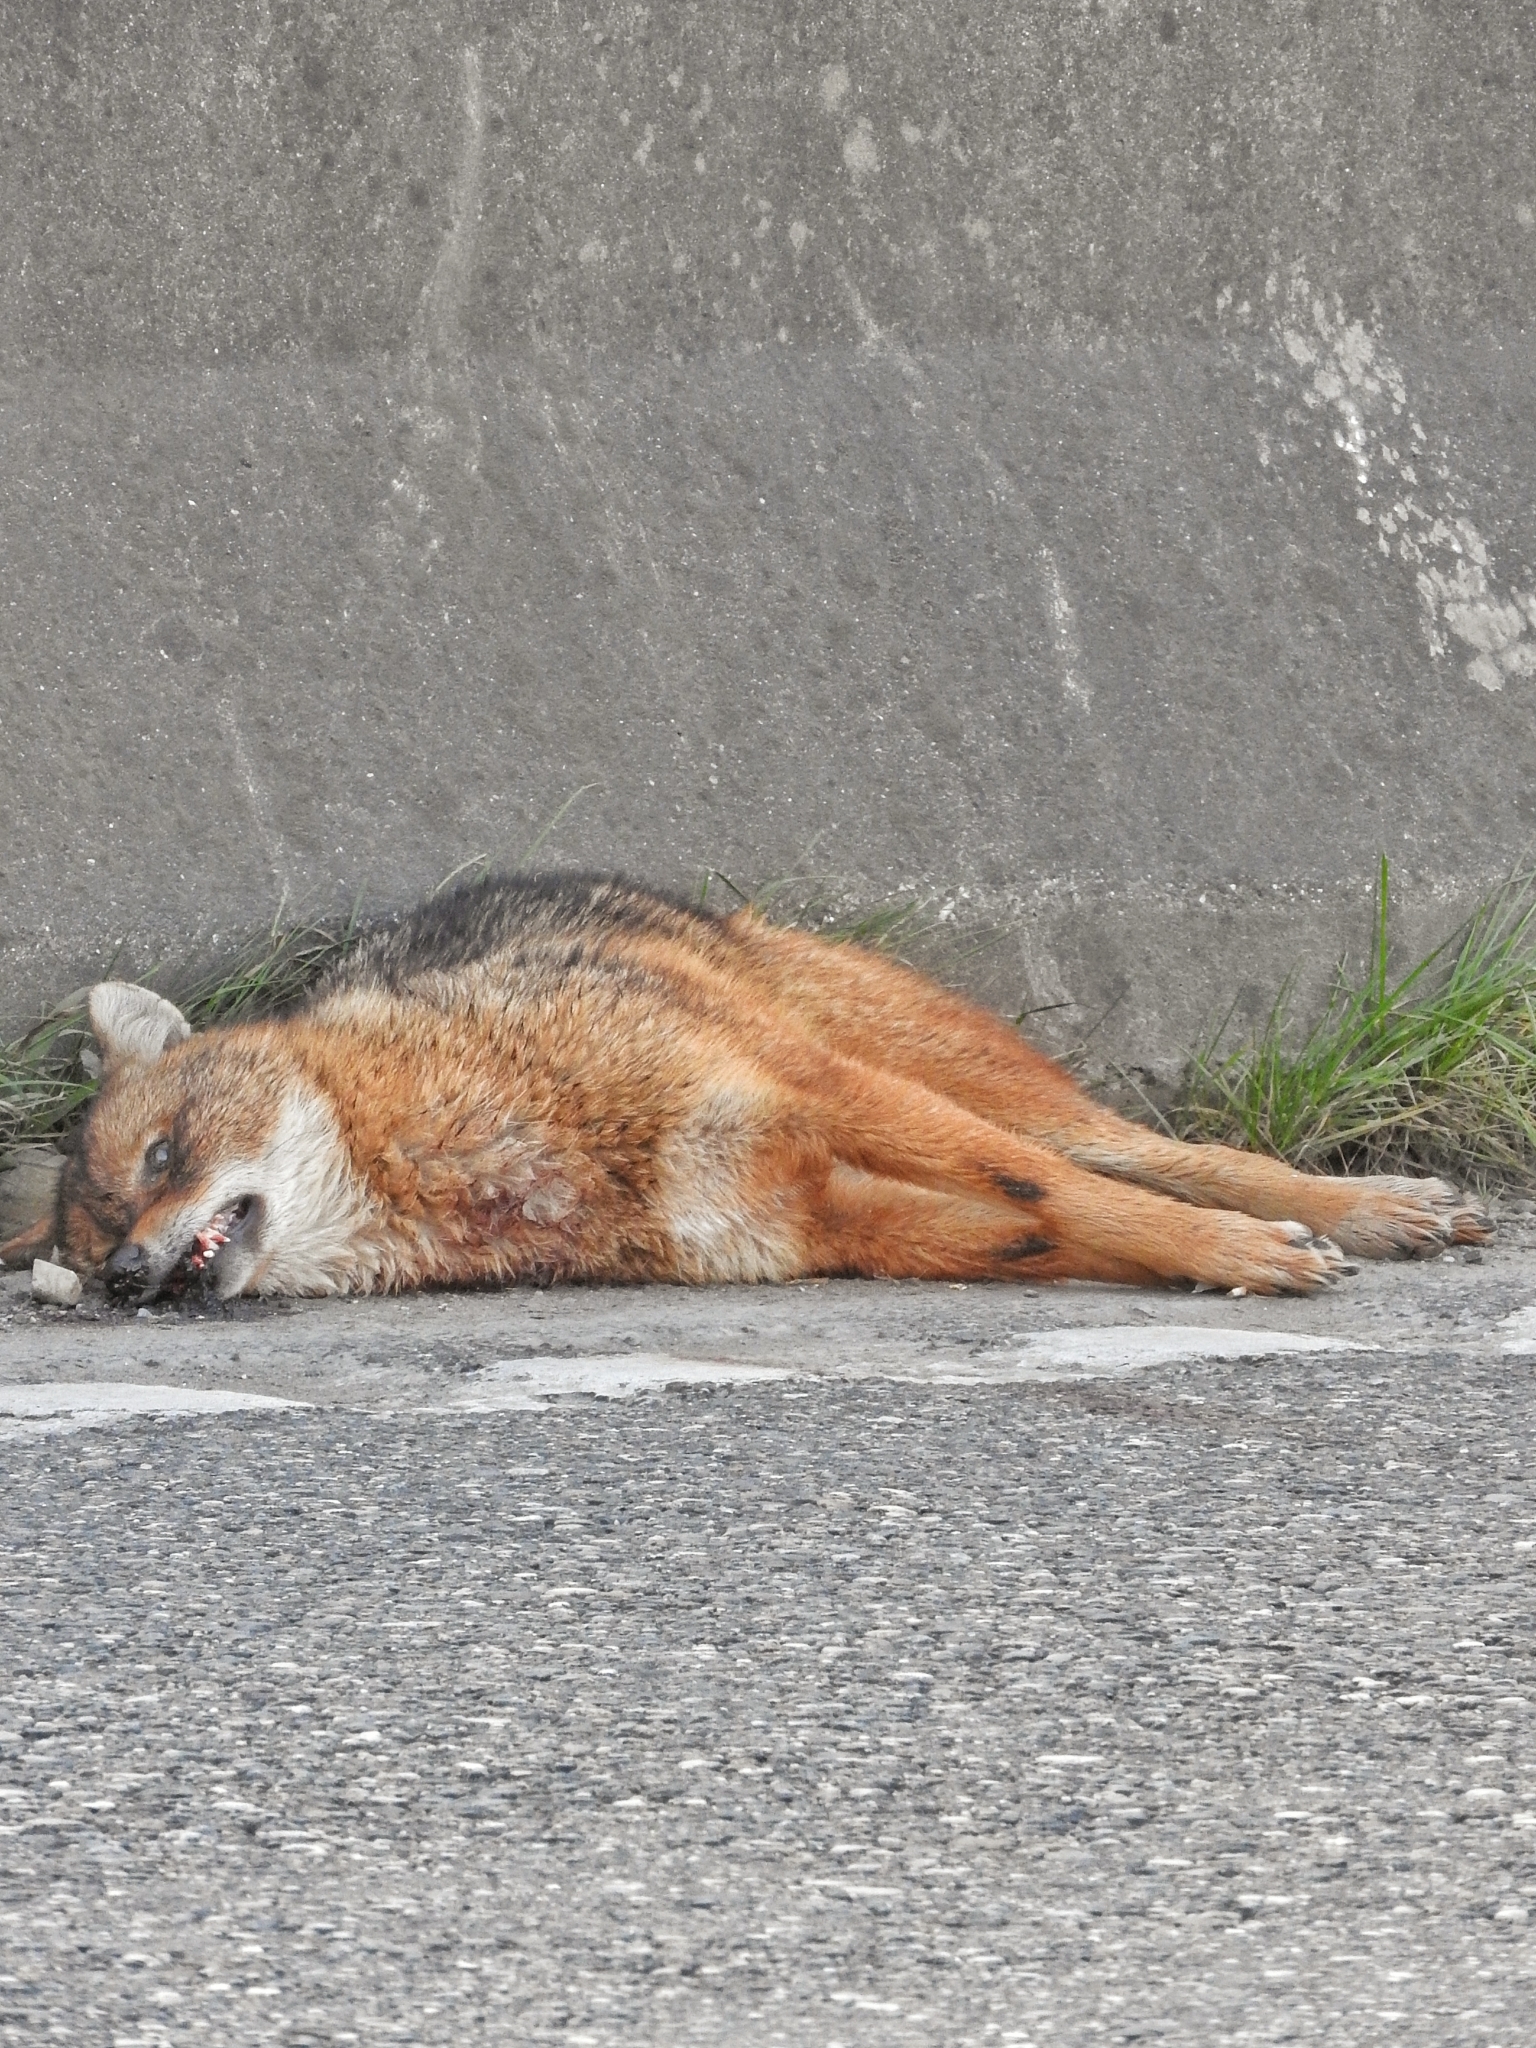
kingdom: Animalia
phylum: Chordata
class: Mammalia
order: Carnivora
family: Canidae
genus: Canis
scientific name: Canis aureus
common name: Golden jackal
